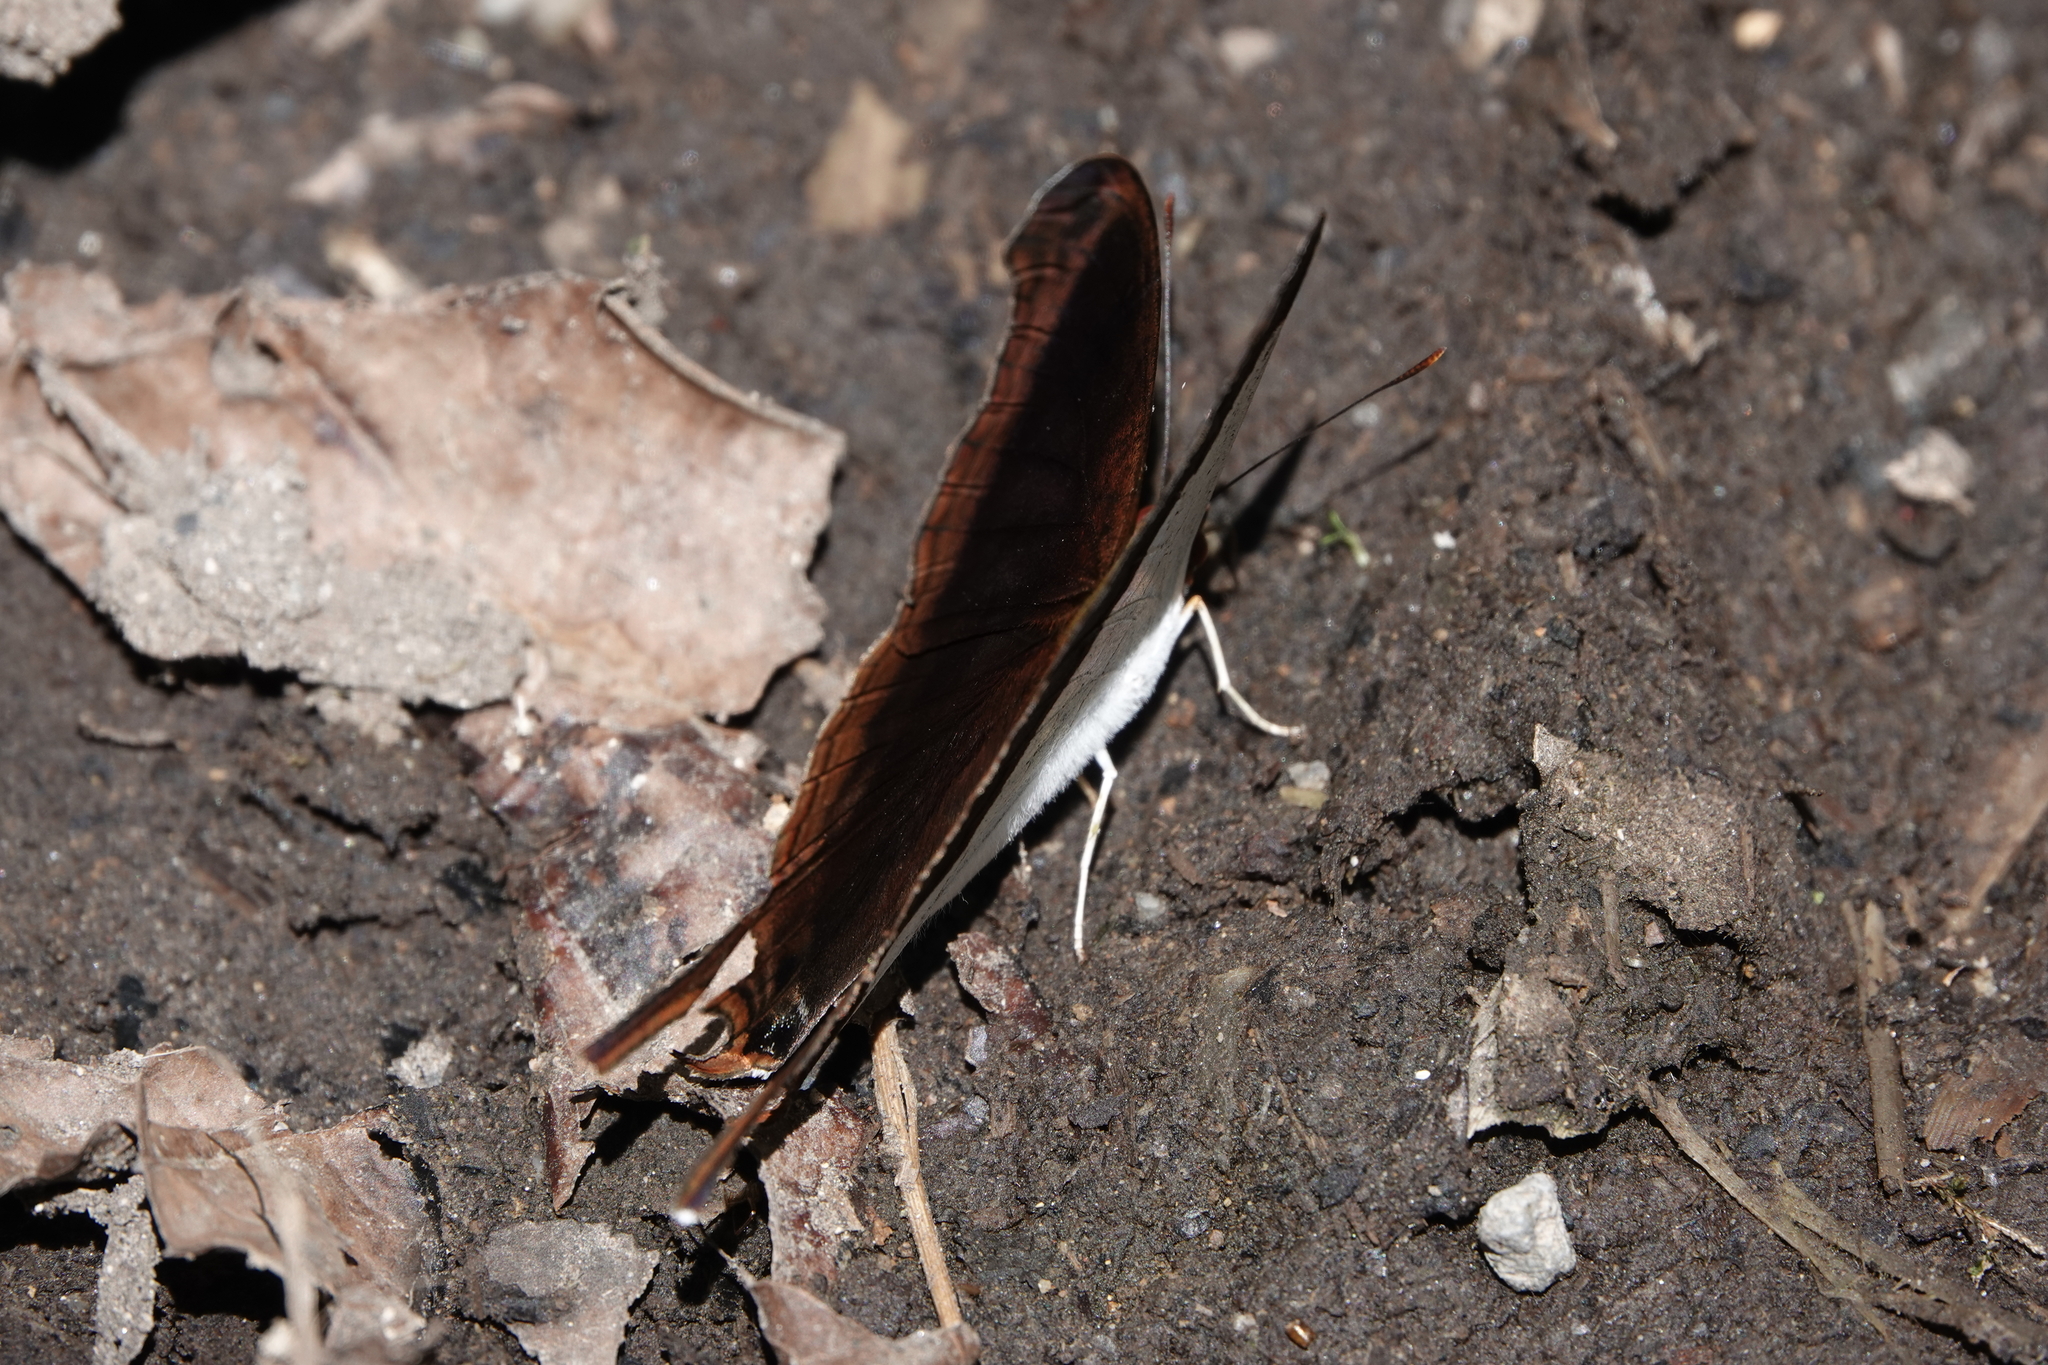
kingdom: Animalia
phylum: Arthropoda
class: Insecta
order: Lepidoptera
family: Nymphalidae
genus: Marpesia
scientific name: Marpesia zerynthia
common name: Waiter daggerwing
